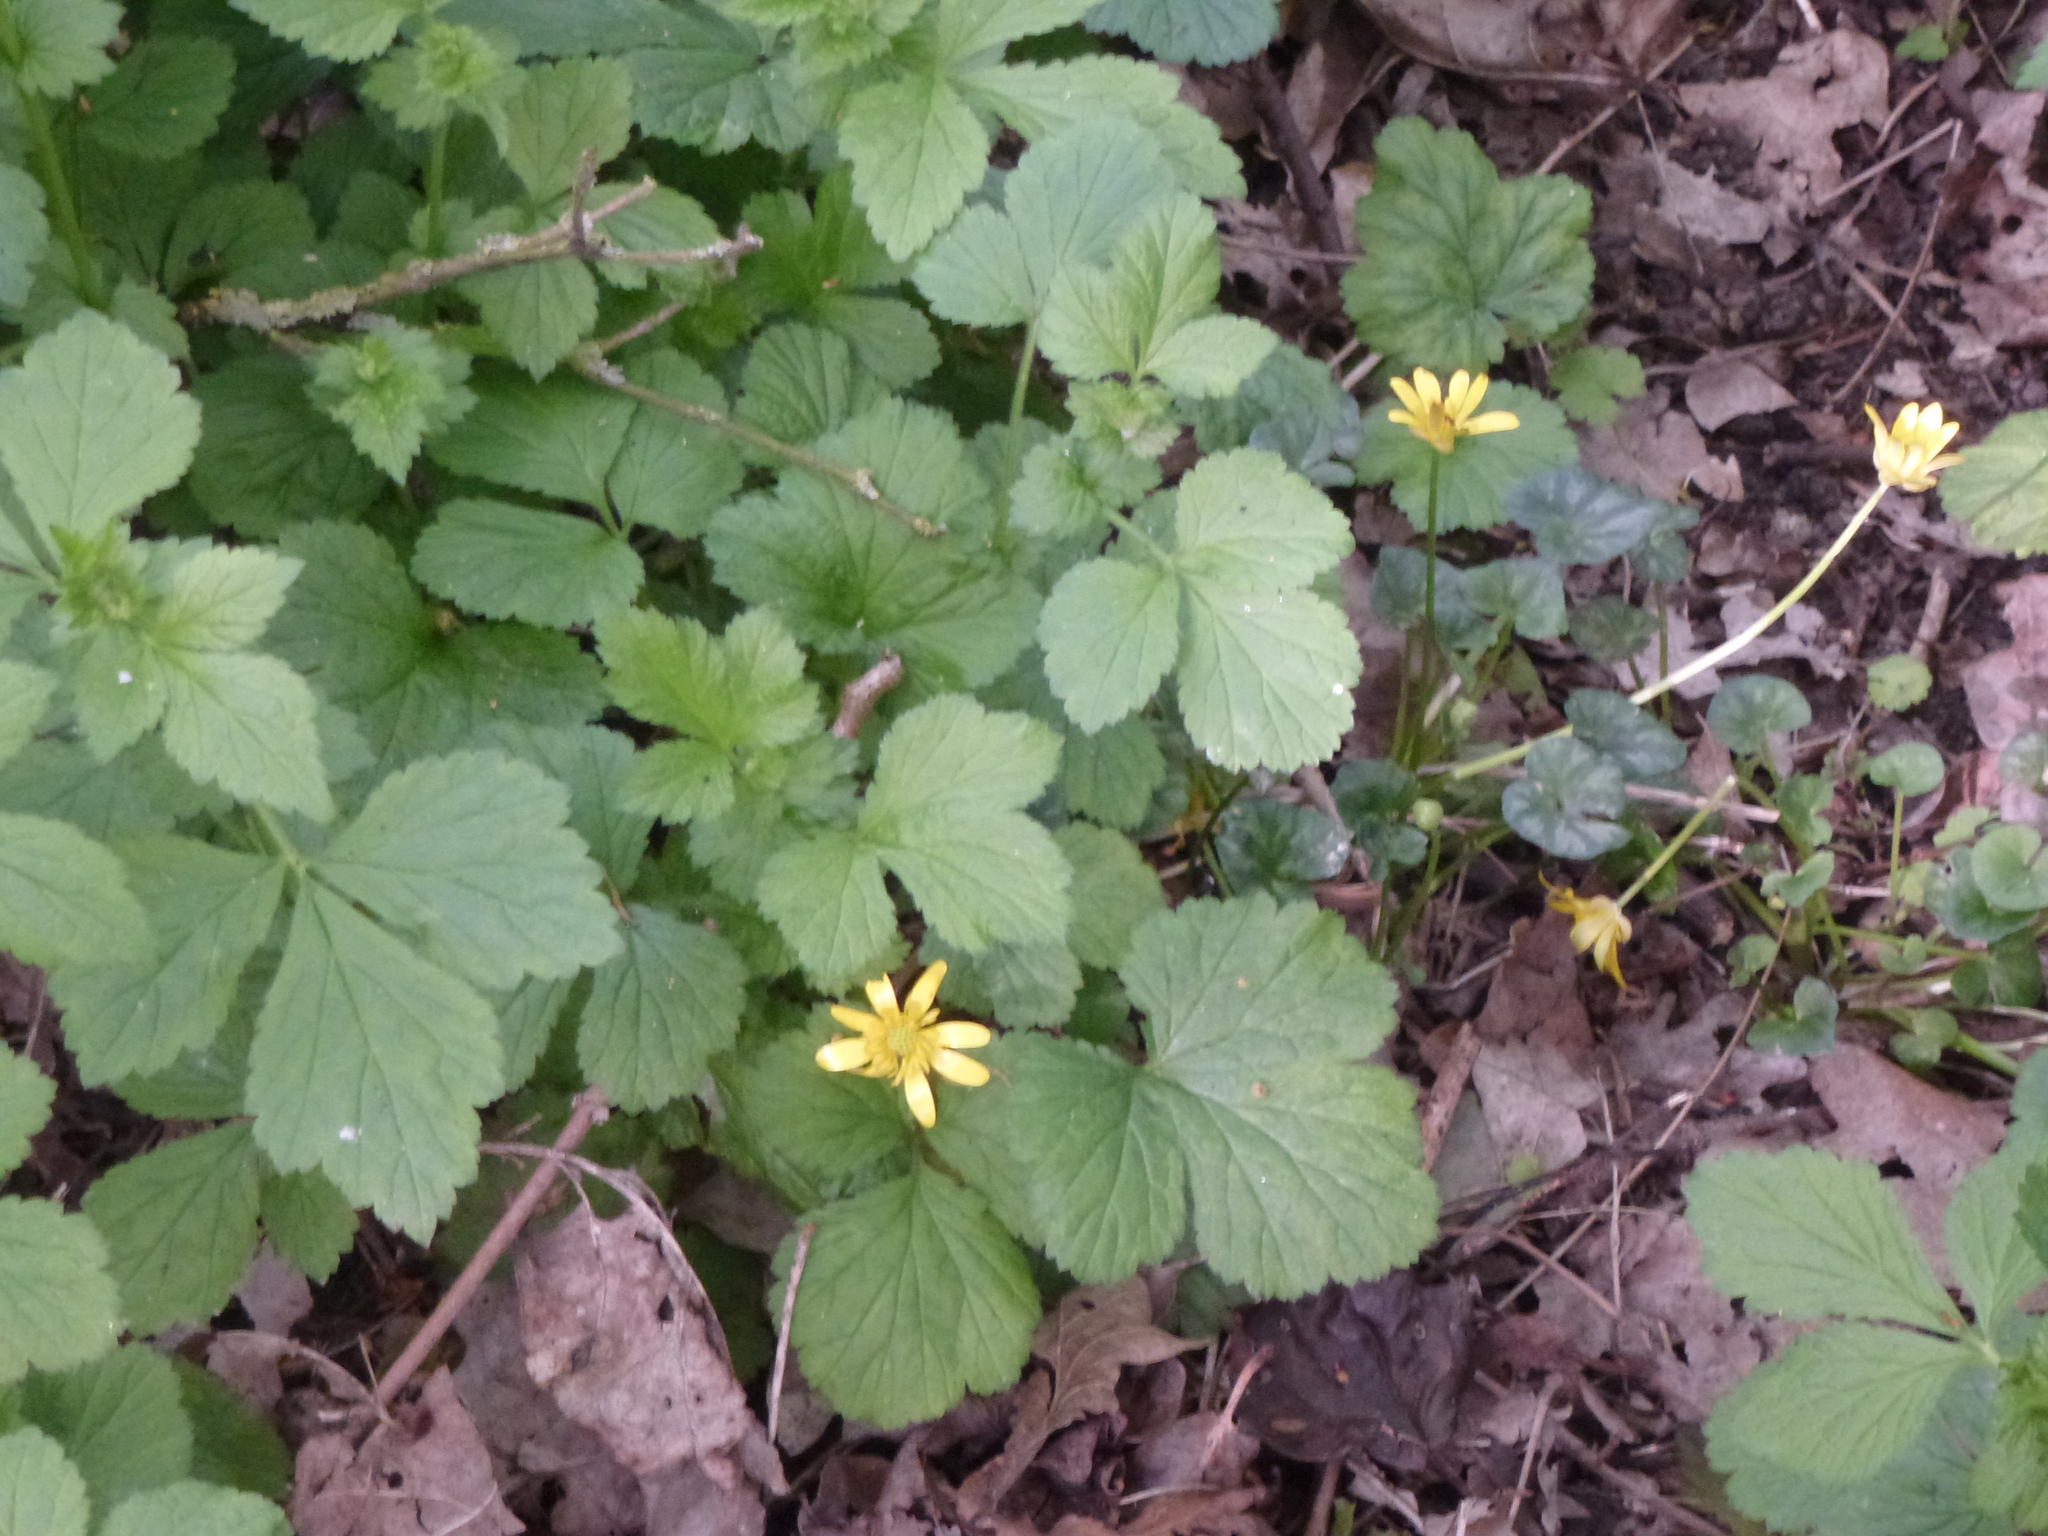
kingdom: Plantae
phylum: Tracheophyta
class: Magnoliopsida
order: Ranunculales
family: Ranunculaceae
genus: Ficaria
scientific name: Ficaria verna
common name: Lesser celandine
